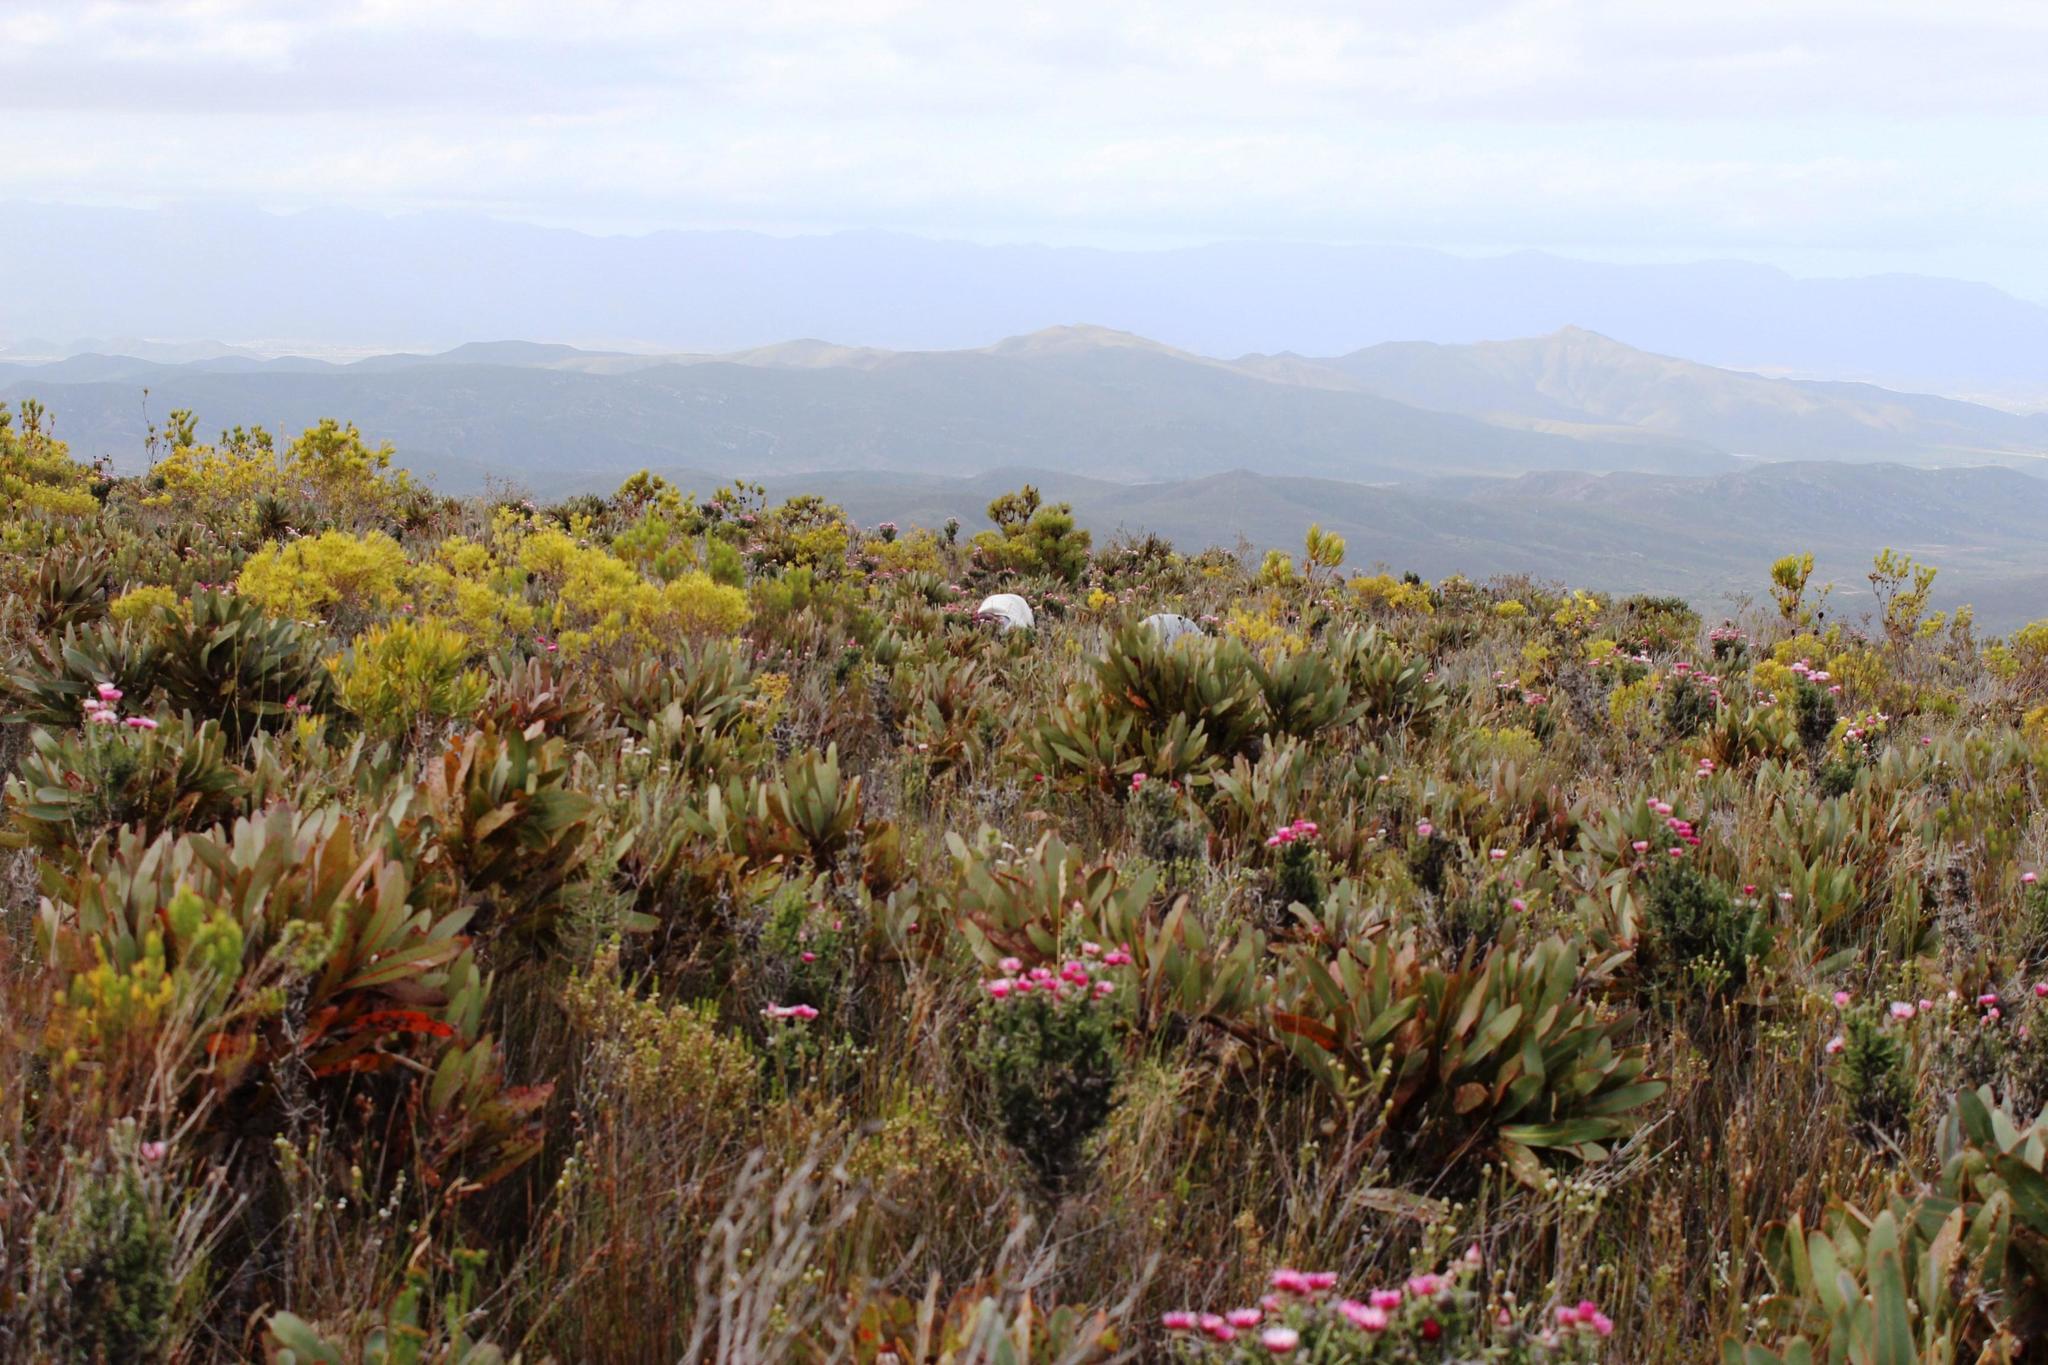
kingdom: Plantae
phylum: Tracheophyta
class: Magnoliopsida
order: Proteales
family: Proteaceae
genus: Protea
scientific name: Protea lorifolia
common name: Strap-leaved protea
